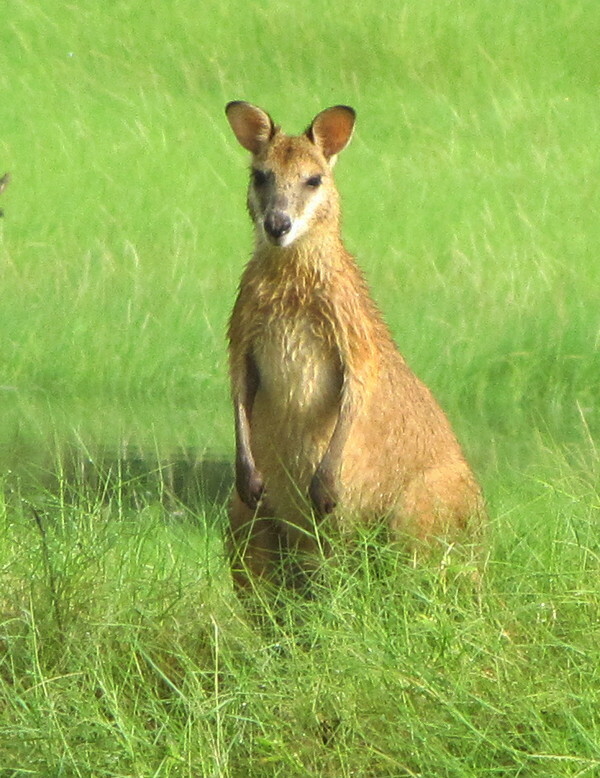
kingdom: Animalia
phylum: Chordata
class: Mammalia
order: Diprotodontia
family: Macropodidae
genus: Macropus
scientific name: Macropus agilis
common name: Agile wallaby
